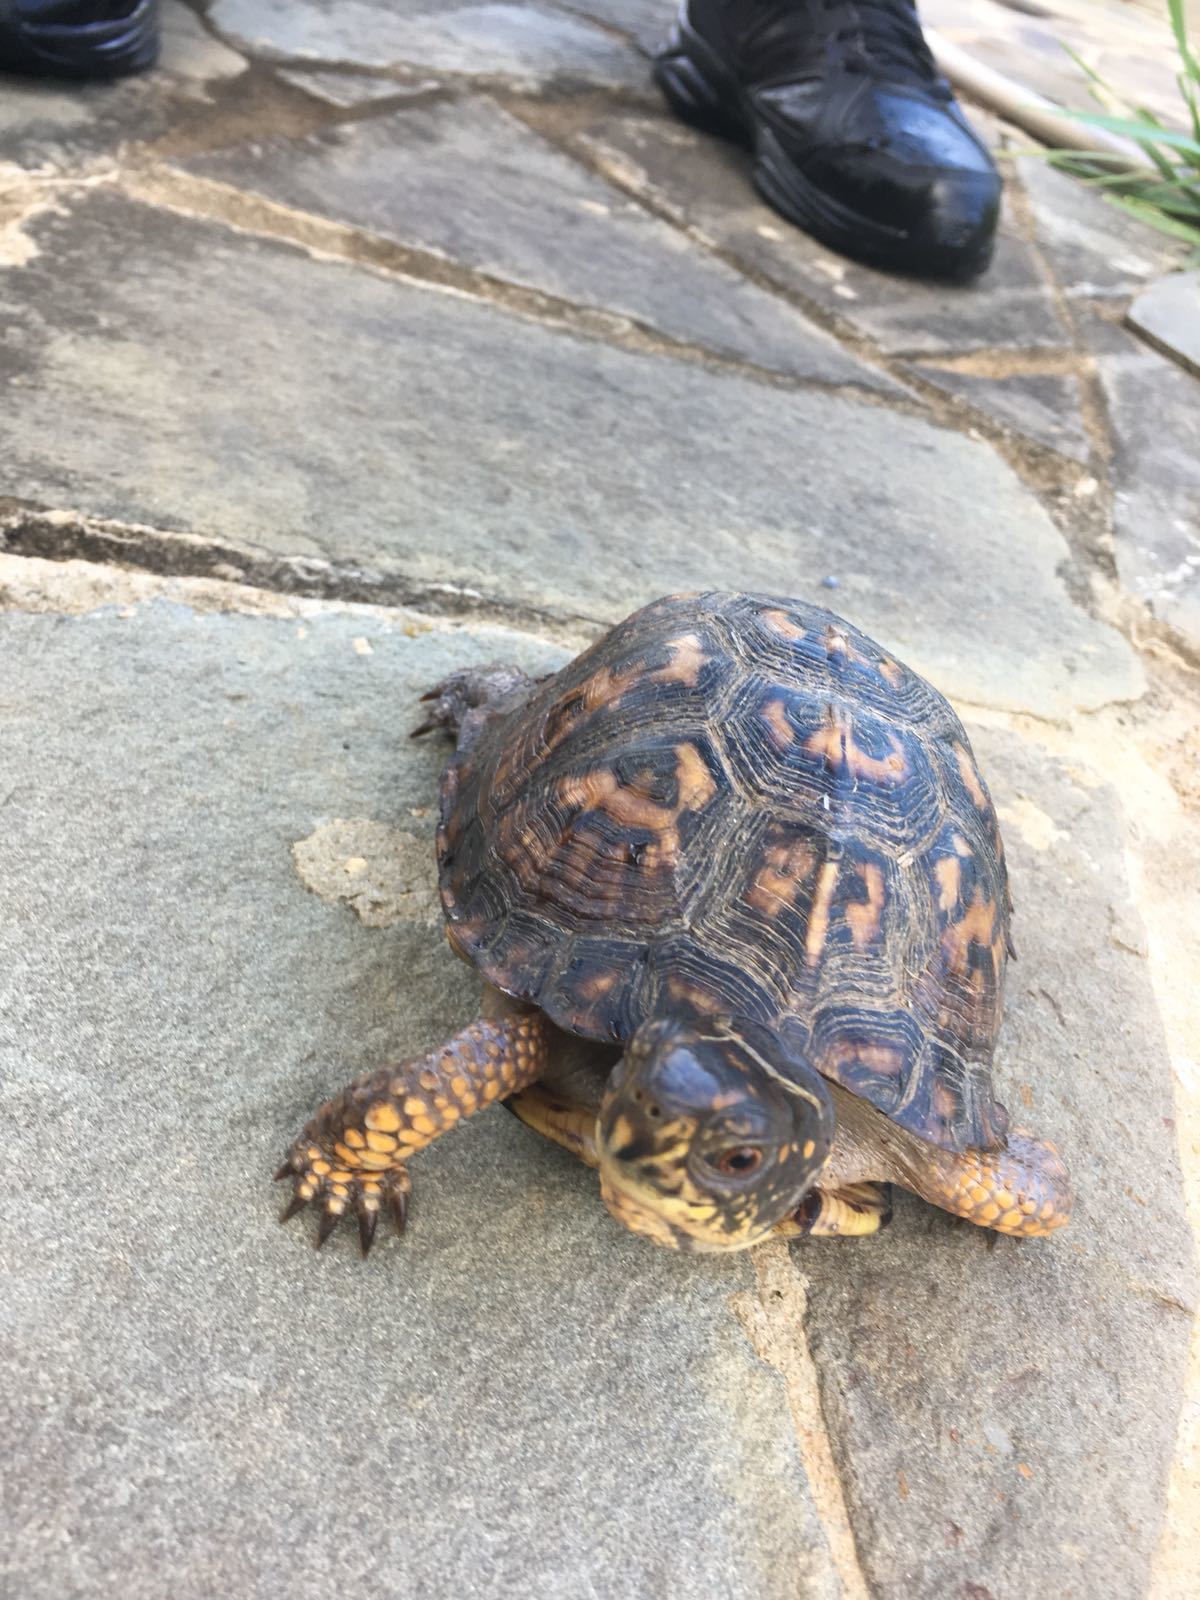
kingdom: Animalia
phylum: Chordata
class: Testudines
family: Emydidae
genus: Terrapene
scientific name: Terrapene carolina
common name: Common box turtle
